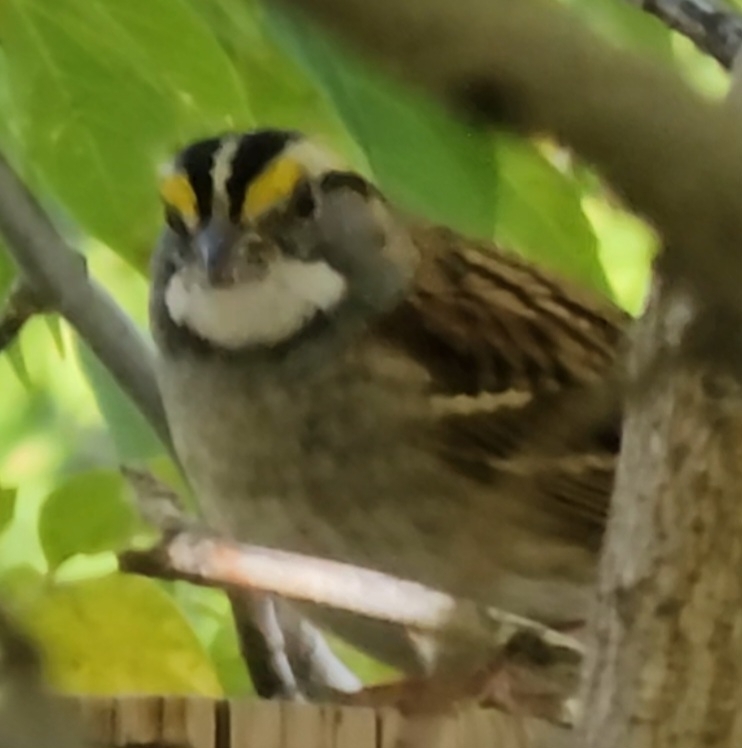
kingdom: Animalia
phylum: Chordata
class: Aves
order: Passeriformes
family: Passerellidae
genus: Zonotrichia
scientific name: Zonotrichia albicollis
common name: White-throated sparrow
